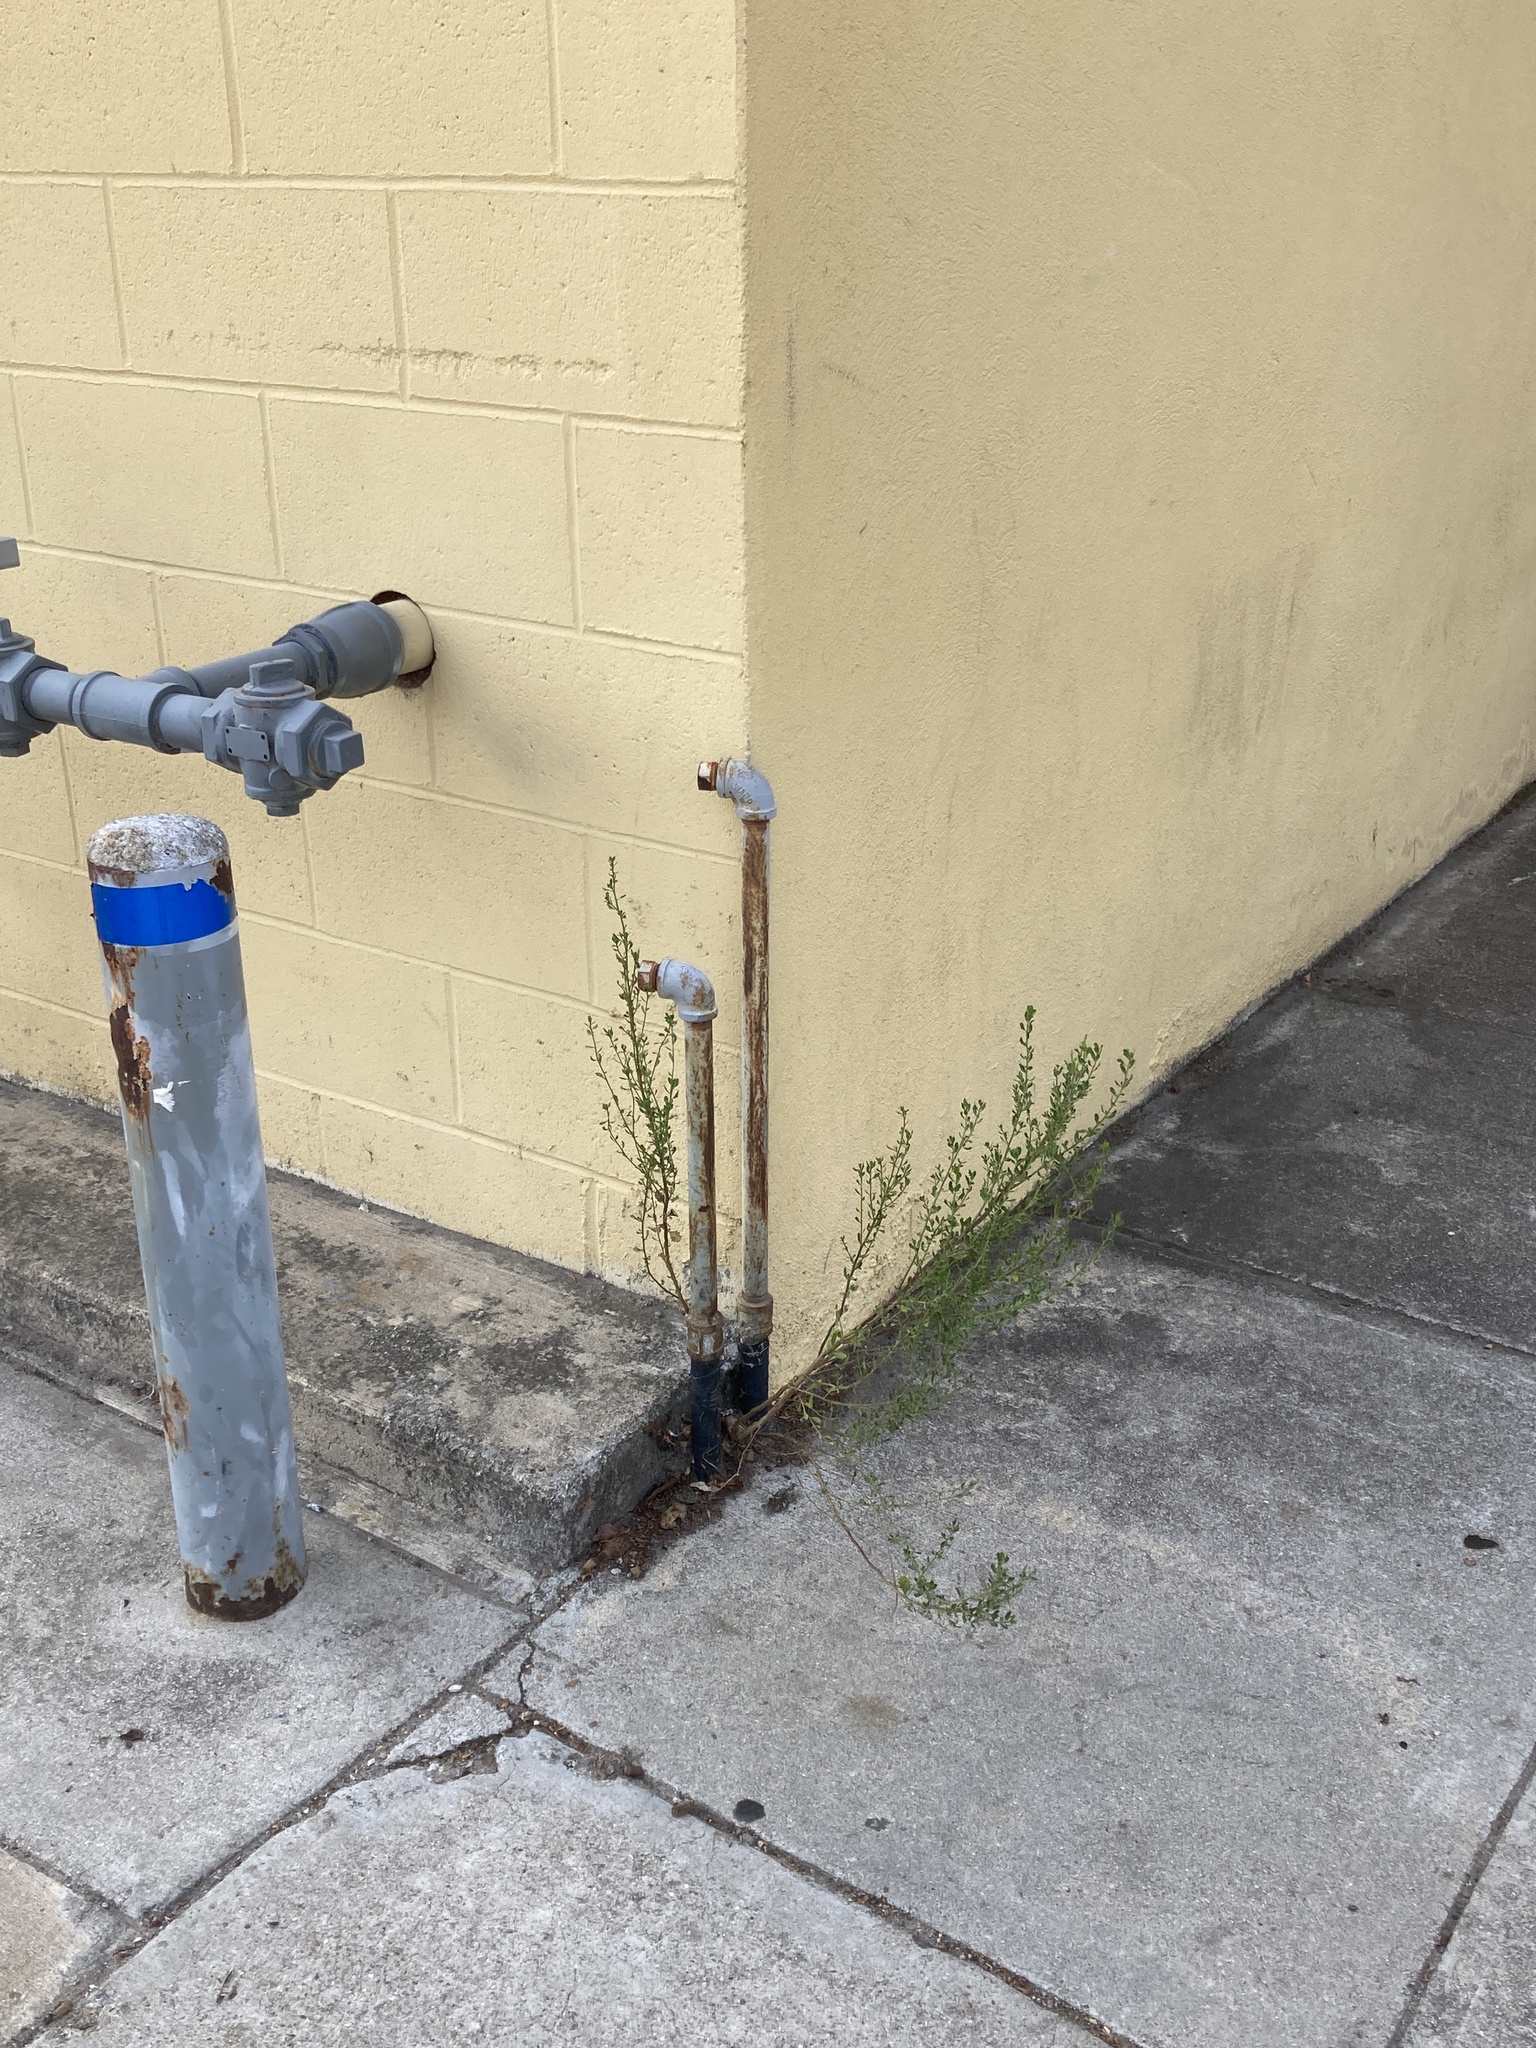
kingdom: Plantae
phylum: Tracheophyta
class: Magnoliopsida
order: Asterales
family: Asteraceae
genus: Baccharis
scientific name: Baccharis pilularis
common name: Coyotebrush
